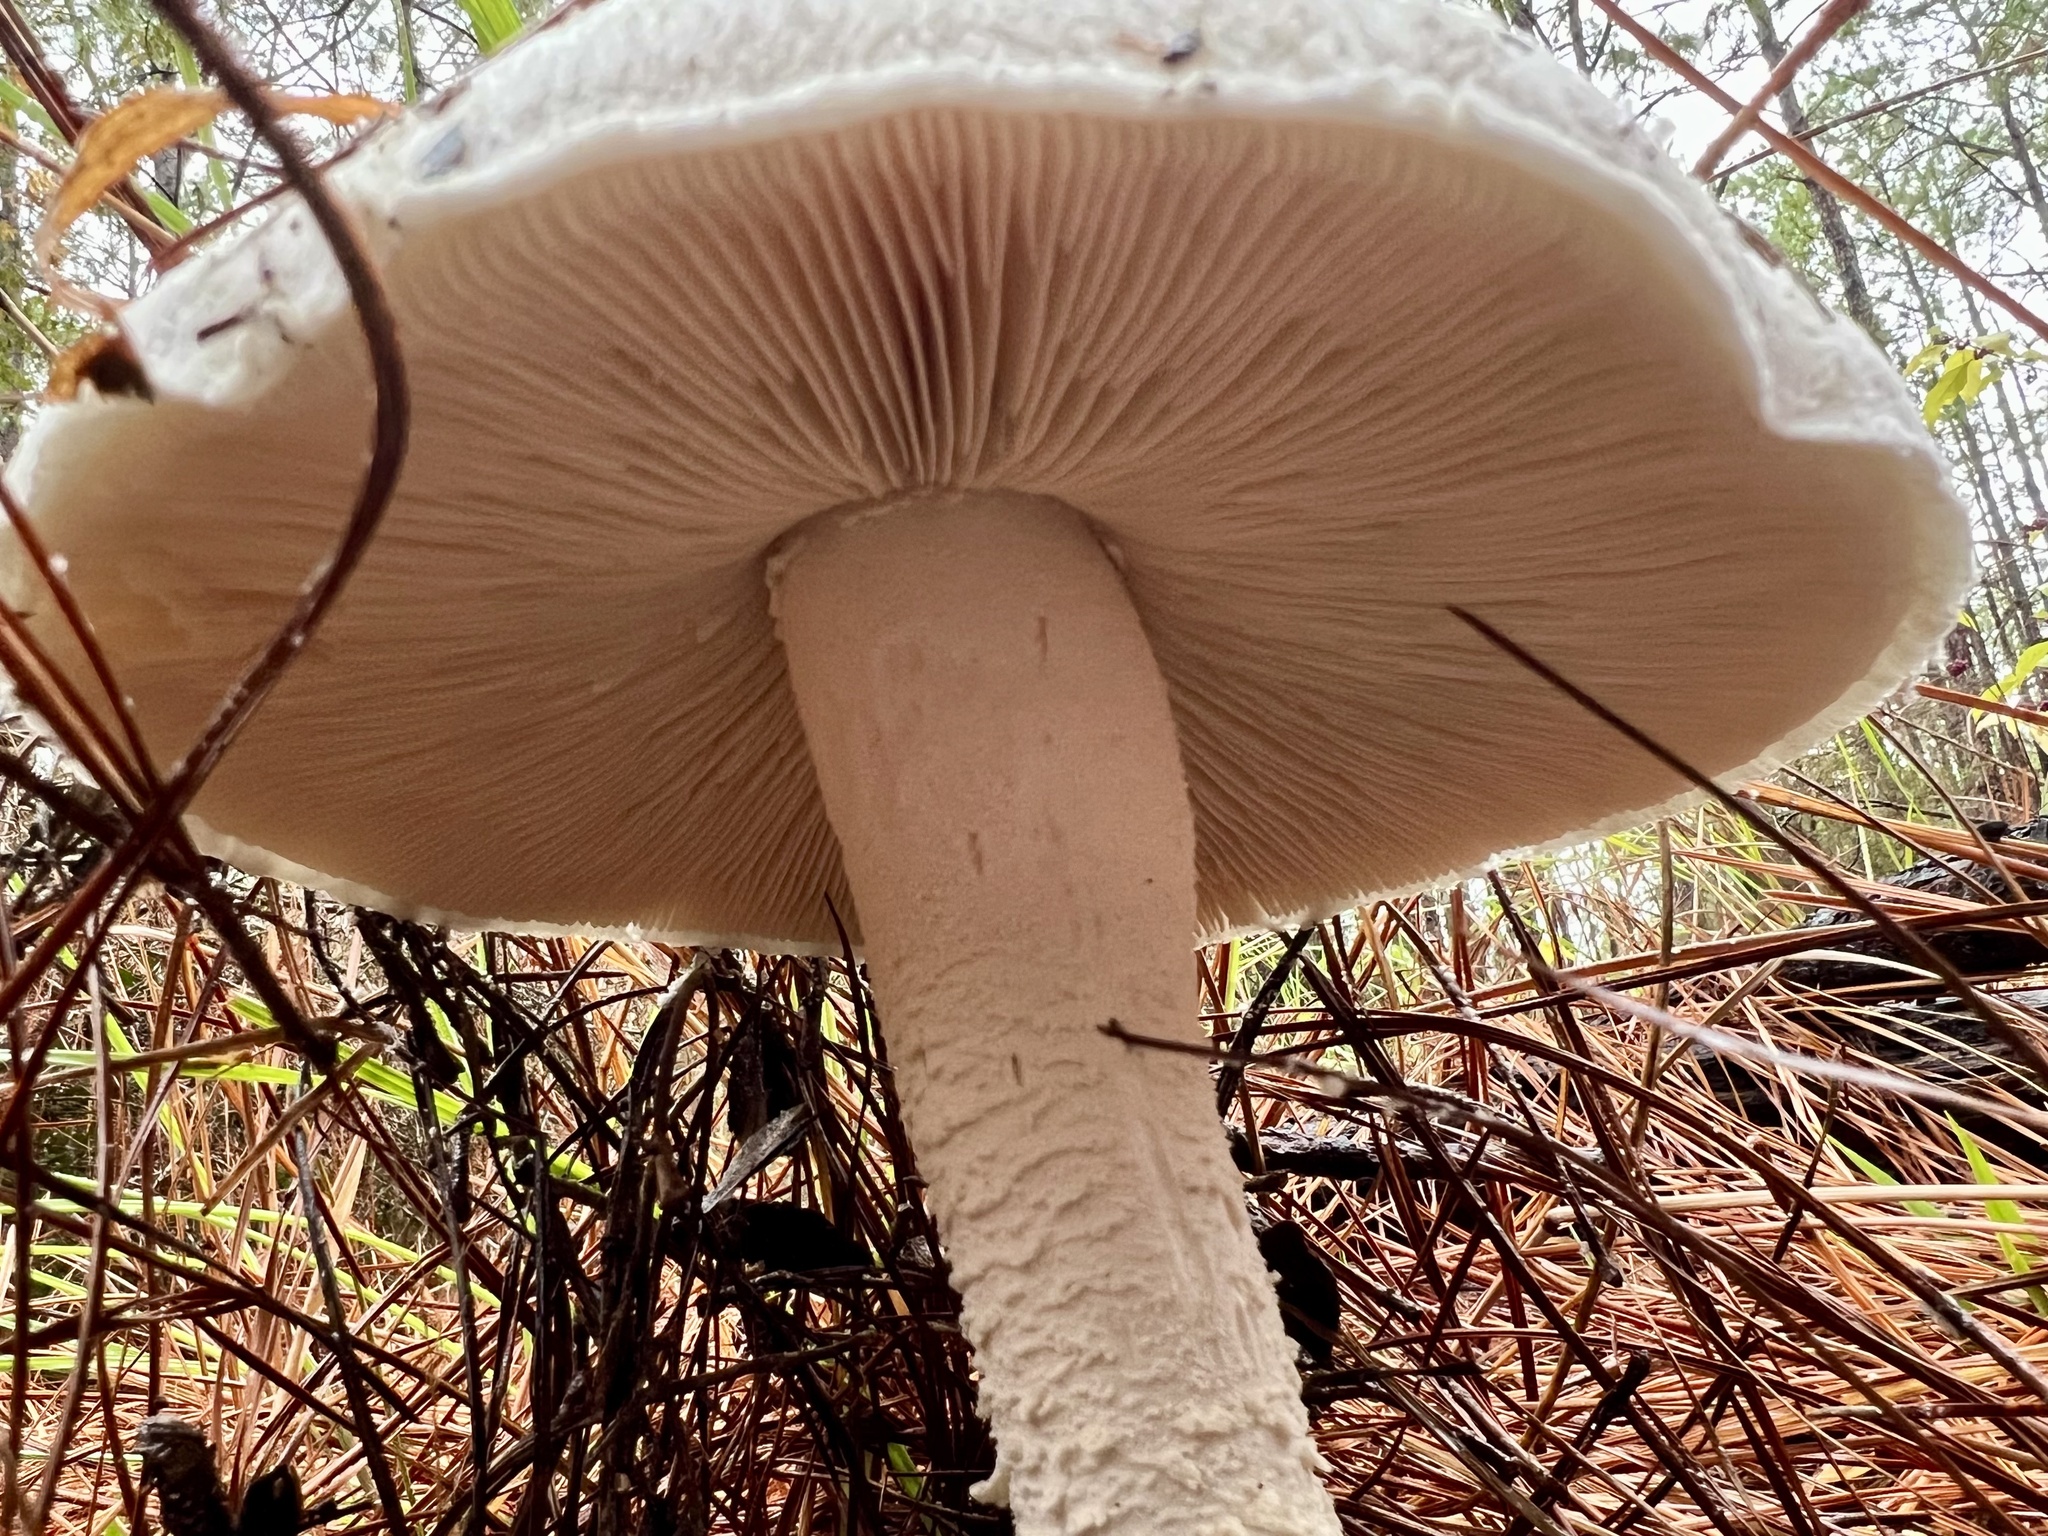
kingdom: Fungi
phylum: Basidiomycota
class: Agaricomycetes
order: Agaricales
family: Amanitaceae
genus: Amanita
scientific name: Amanita polypyramis
